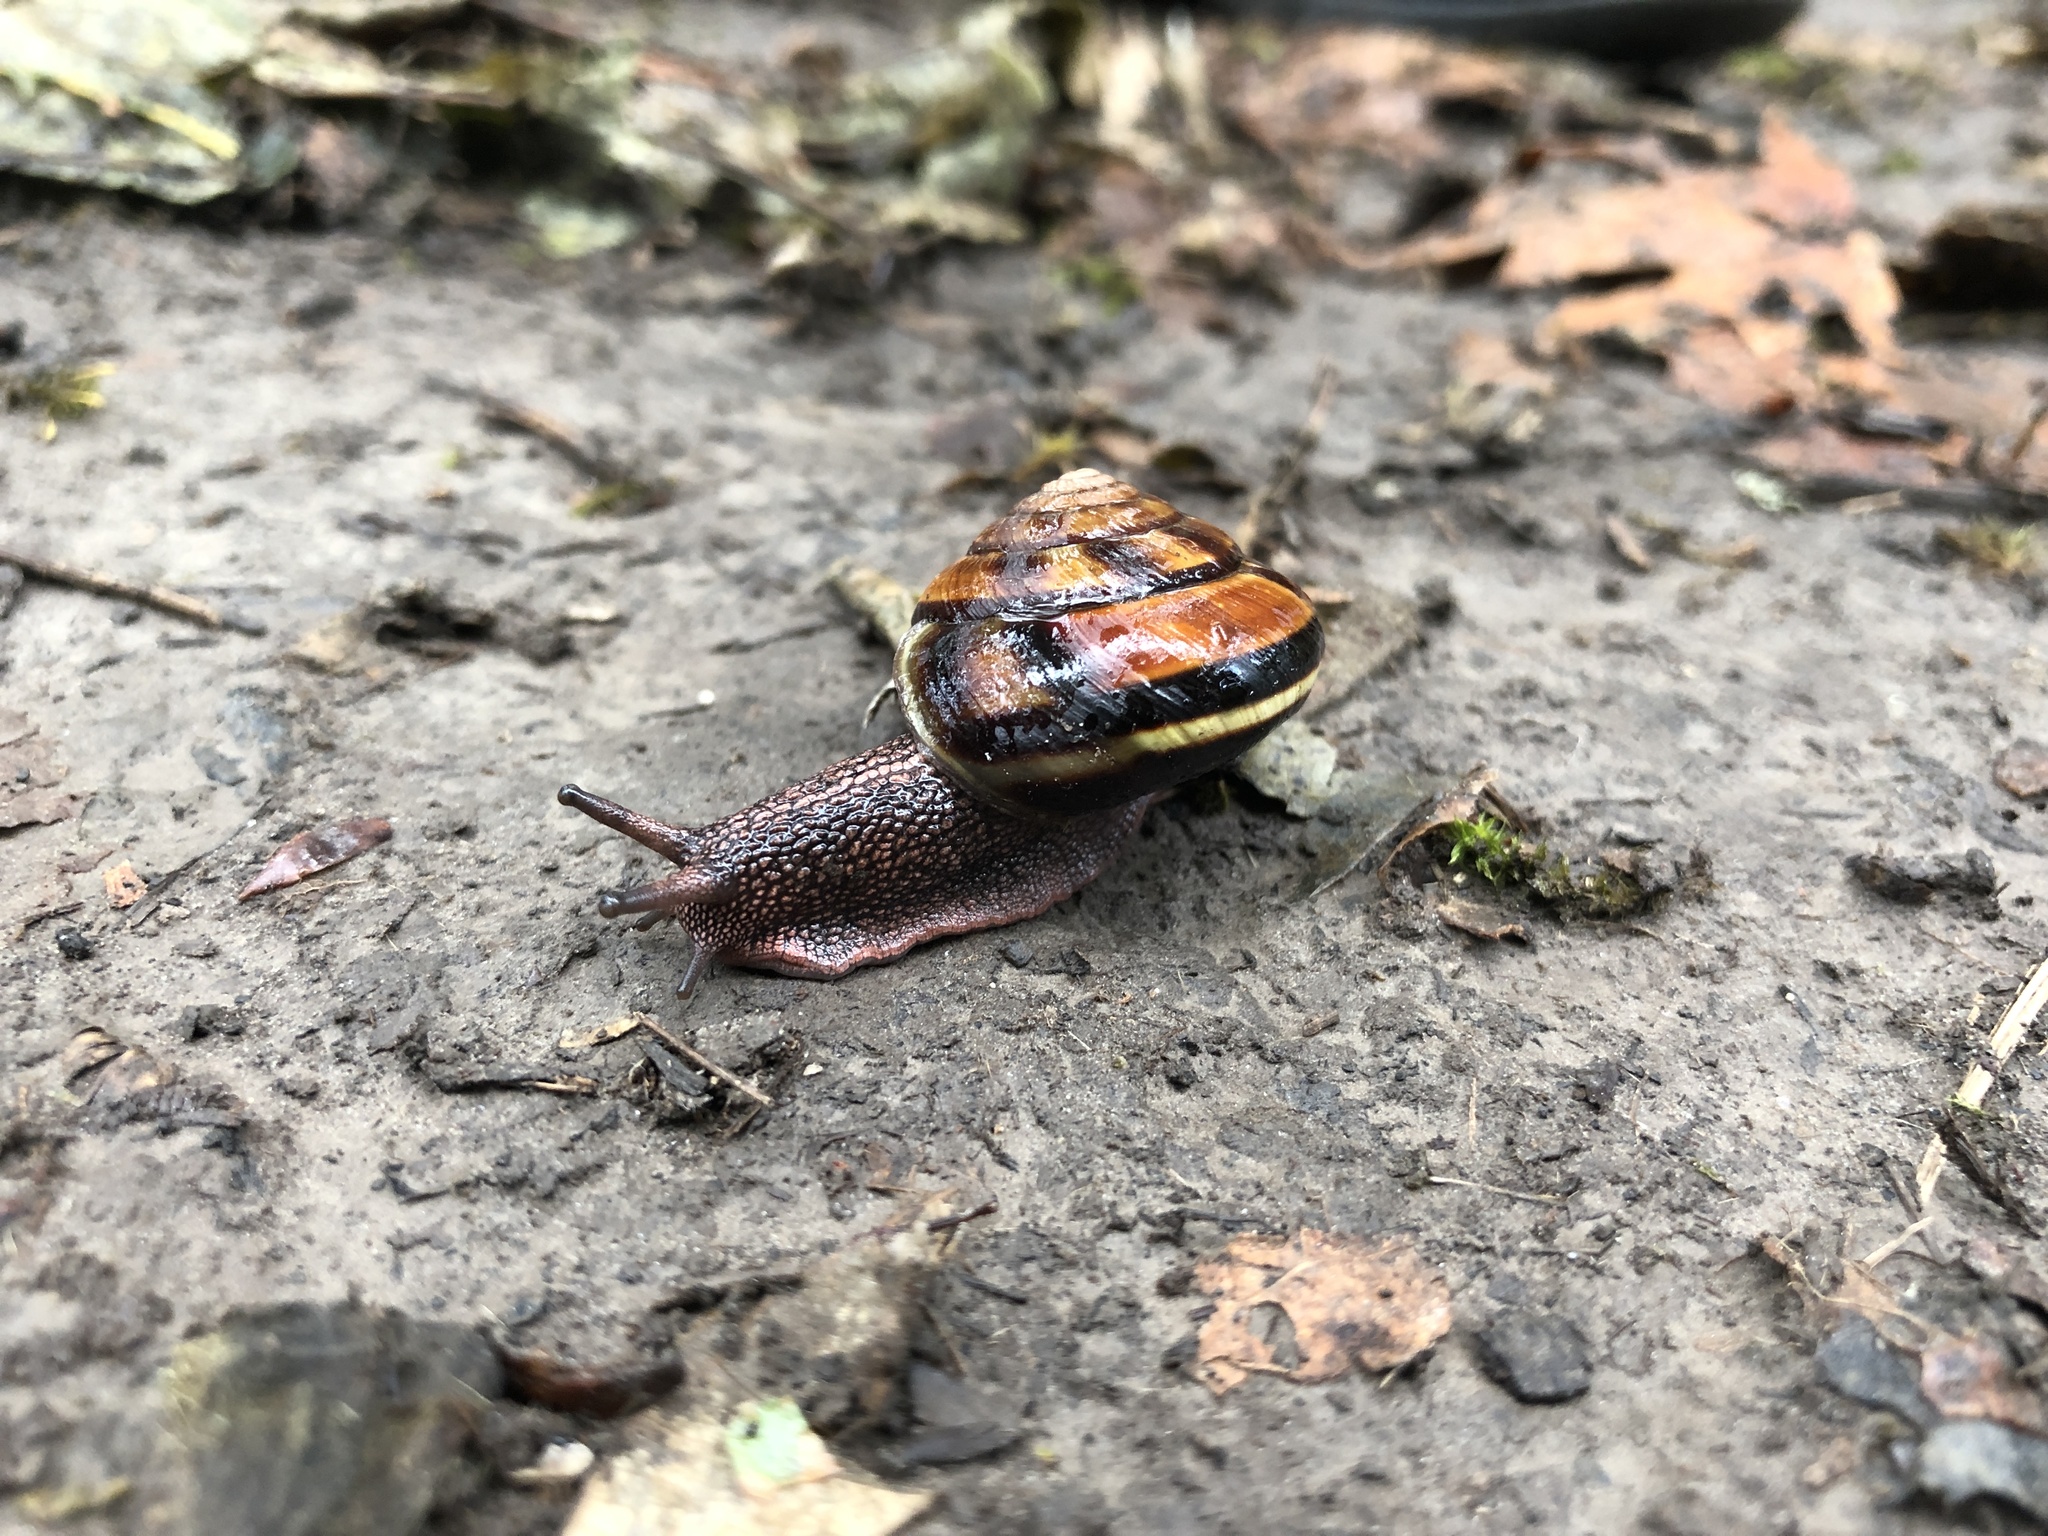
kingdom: Animalia
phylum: Mollusca
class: Gastropoda
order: Stylommatophora
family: Xanthonychidae
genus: Monadenia
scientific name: Monadenia fidelis
